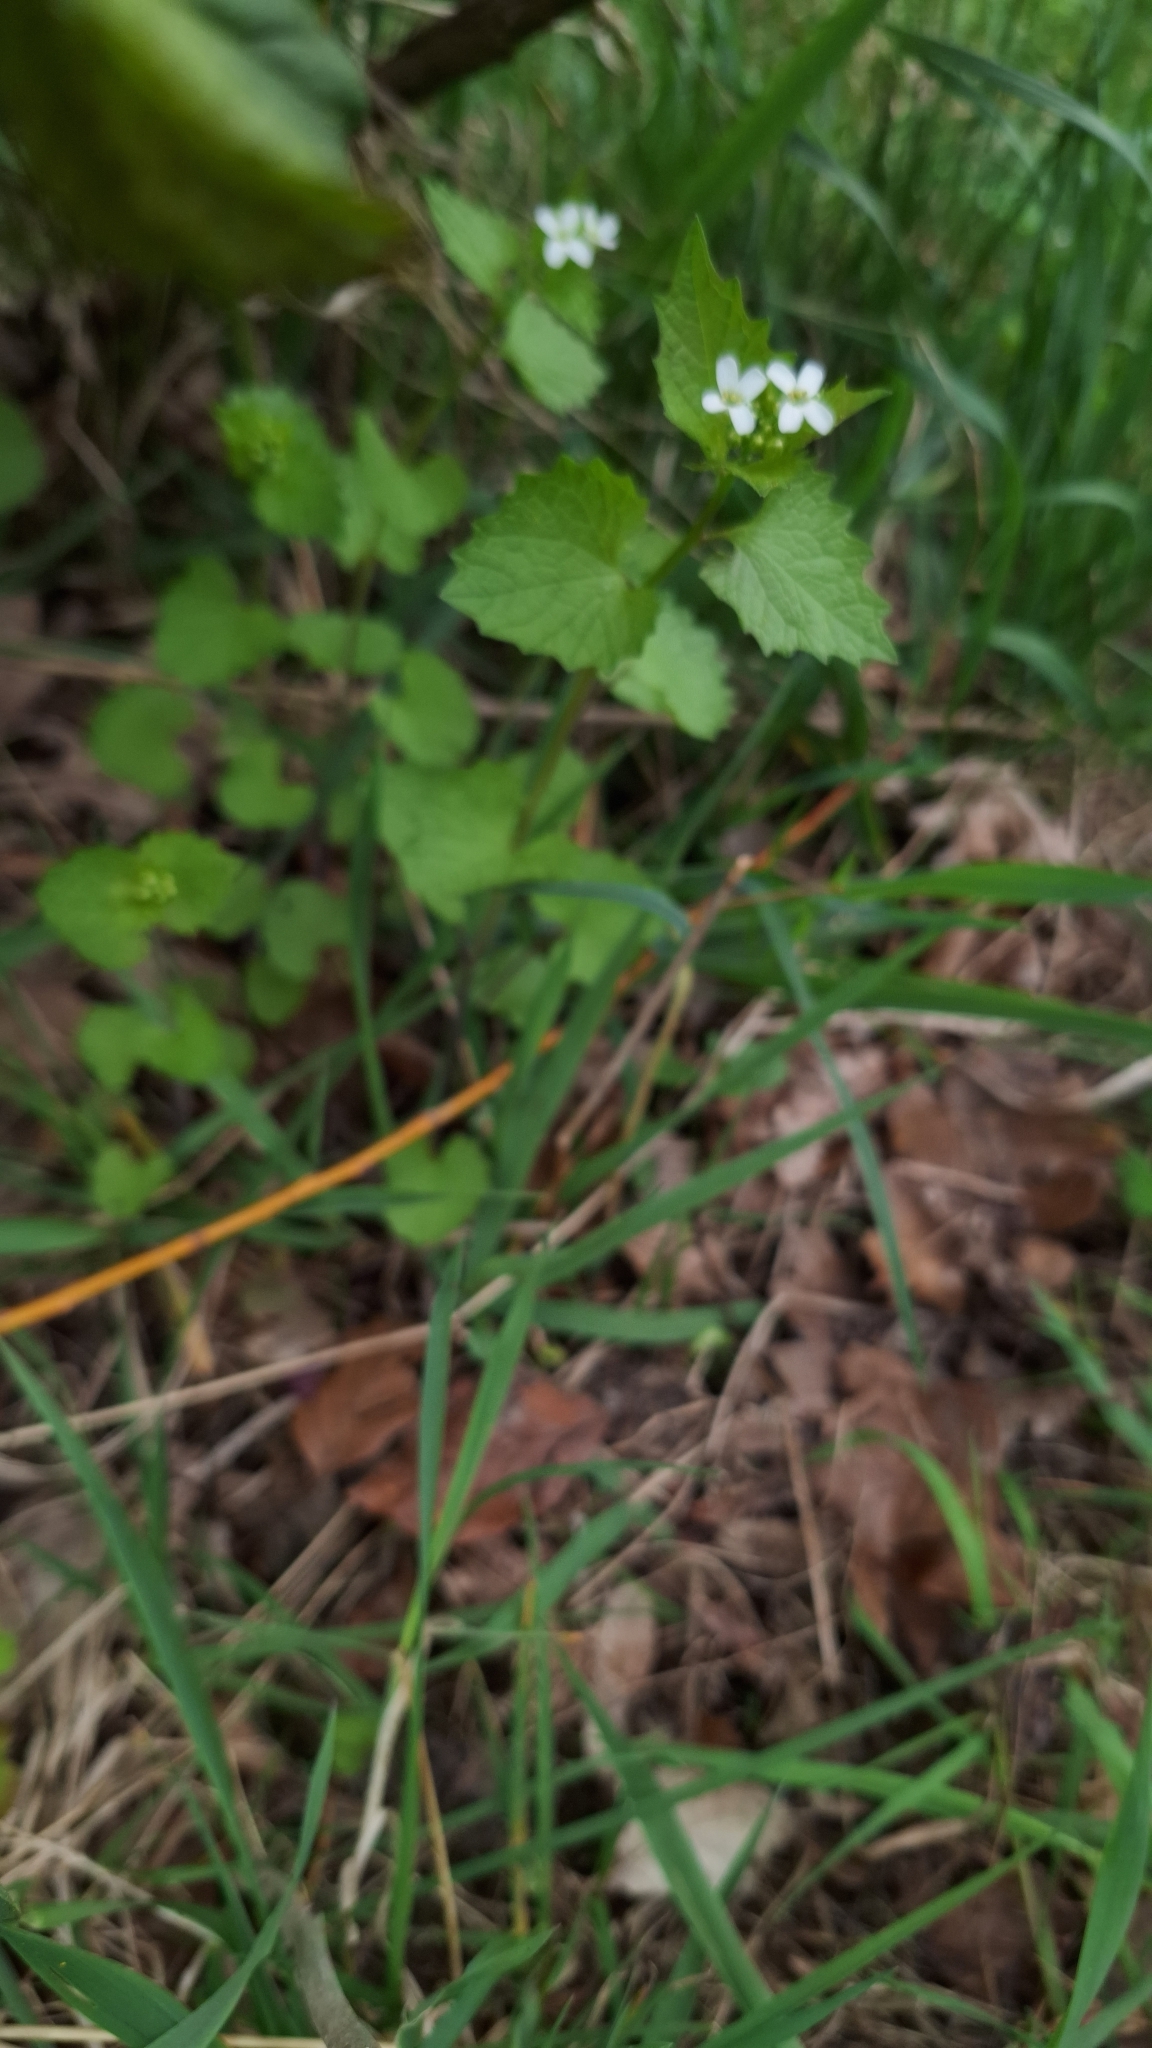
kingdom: Plantae
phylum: Tracheophyta
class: Magnoliopsida
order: Brassicales
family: Brassicaceae
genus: Alliaria
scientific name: Alliaria petiolata
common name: Garlic mustard
